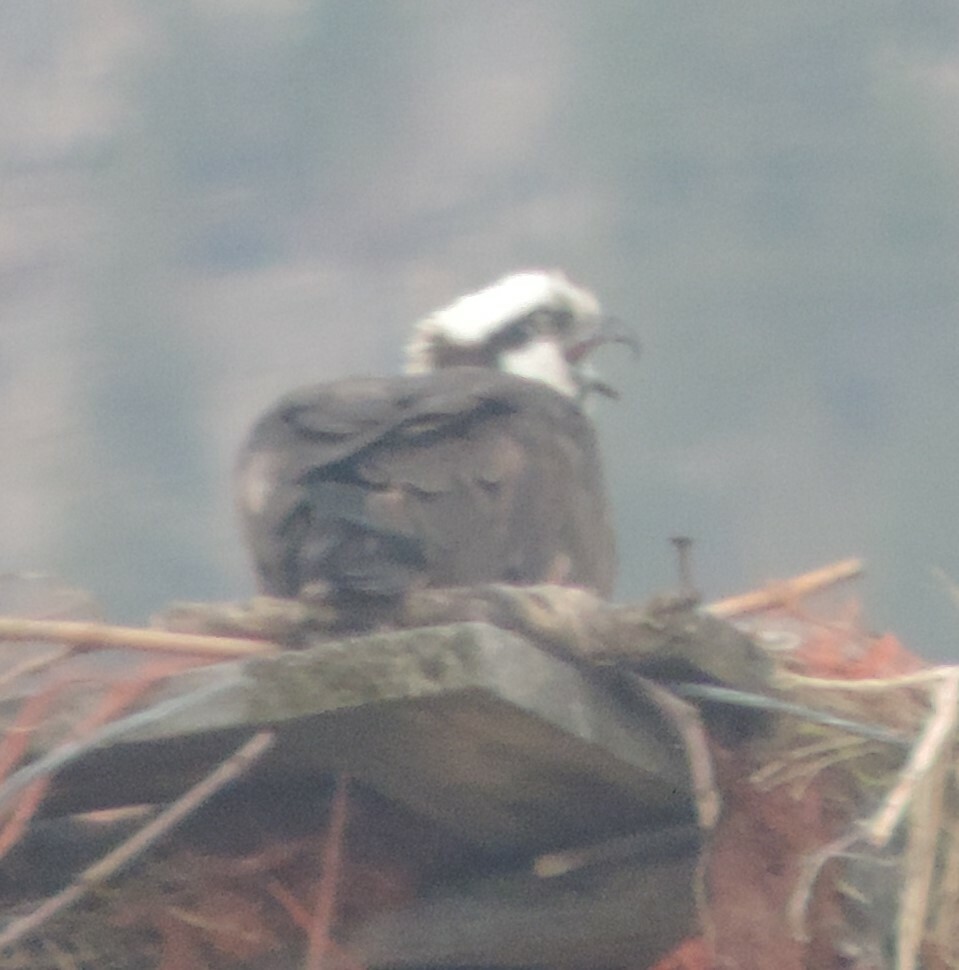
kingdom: Animalia
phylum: Chordata
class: Aves
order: Accipitriformes
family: Pandionidae
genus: Pandion
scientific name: Pandion haliaetus
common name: Osprey
